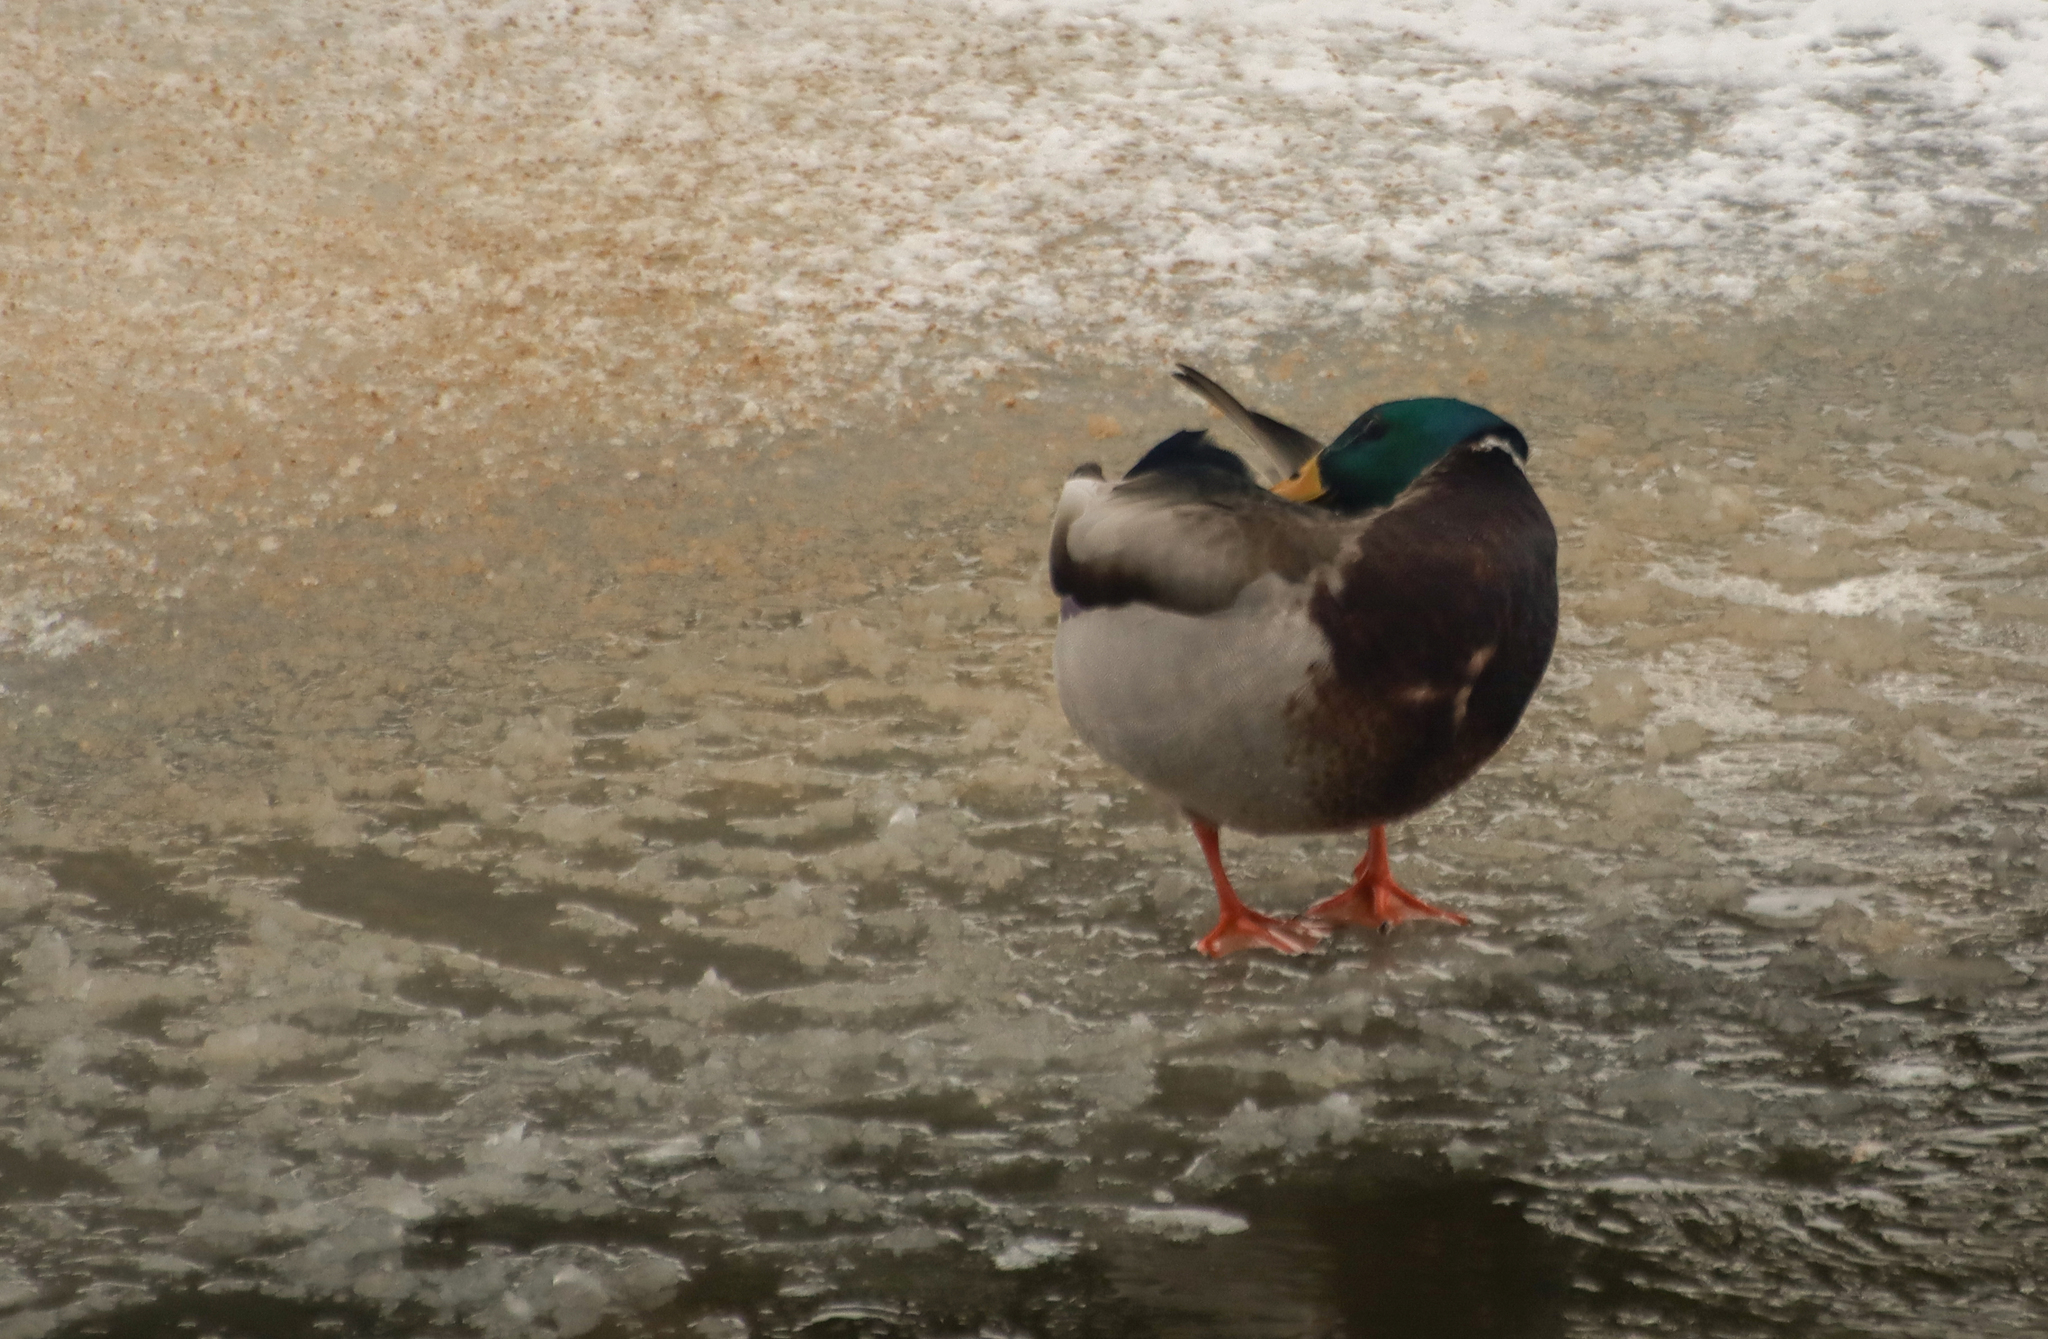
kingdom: Animalia
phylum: Chordata
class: Aves
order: Anseriformes
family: Anatidae
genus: Anas
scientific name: Anas platyrhynchos
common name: Mallard
